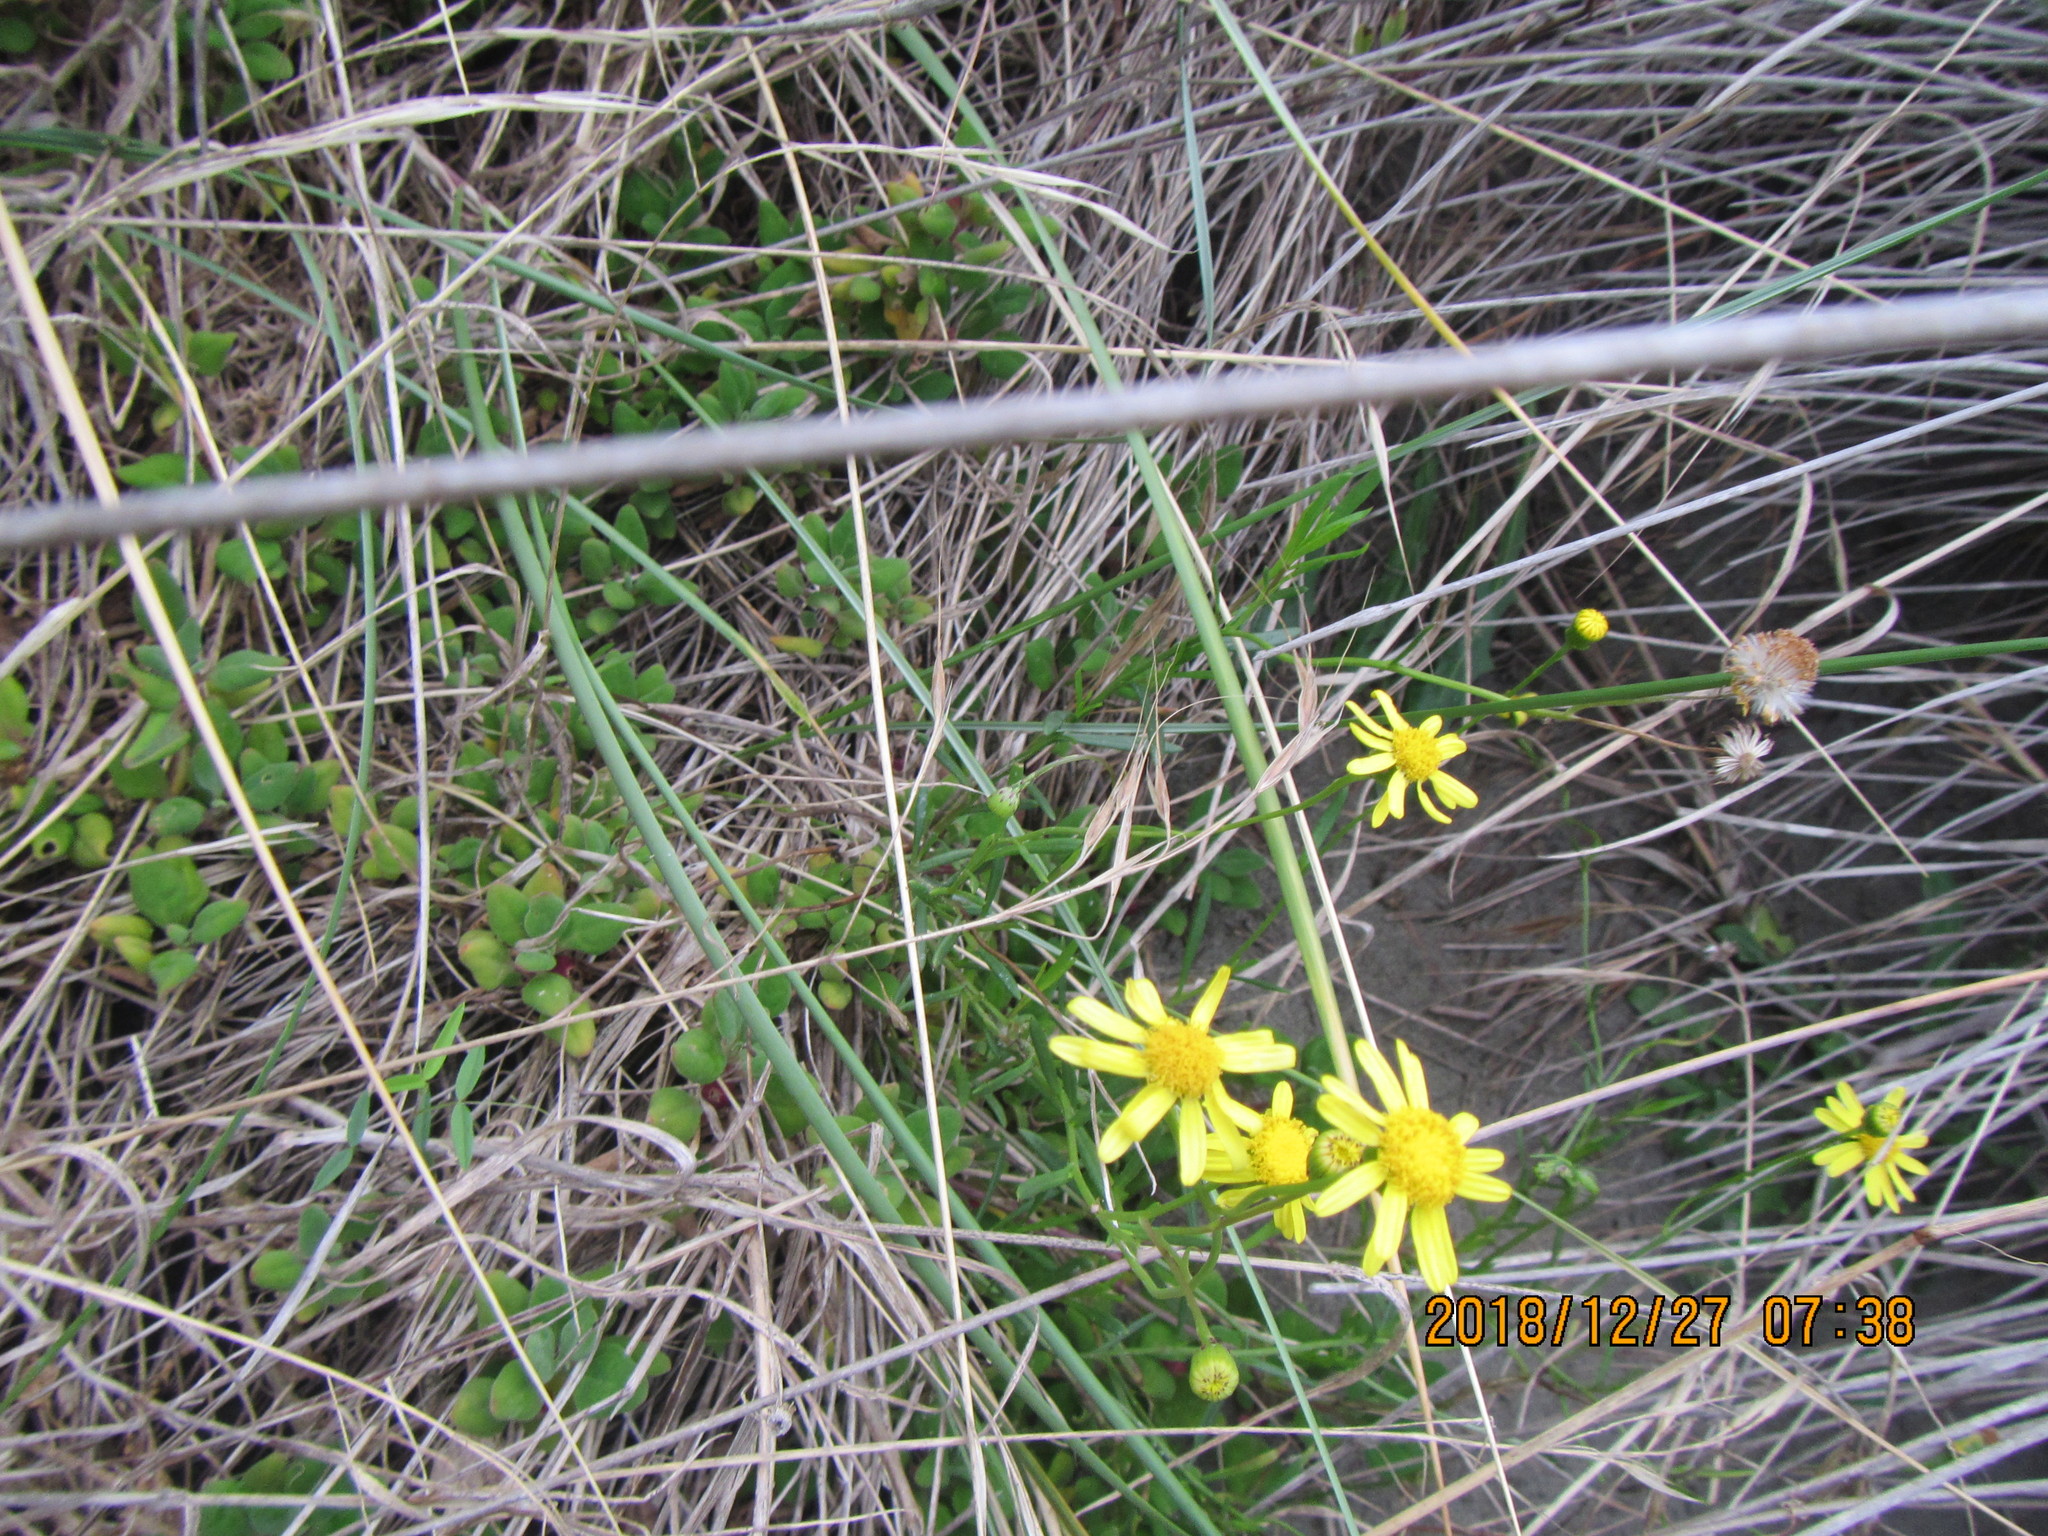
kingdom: Plantae
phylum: Tracheophyta
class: Magnoliopsida
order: Asterales
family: Asteraceae
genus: Senecio
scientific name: Senecio skirrhodon
